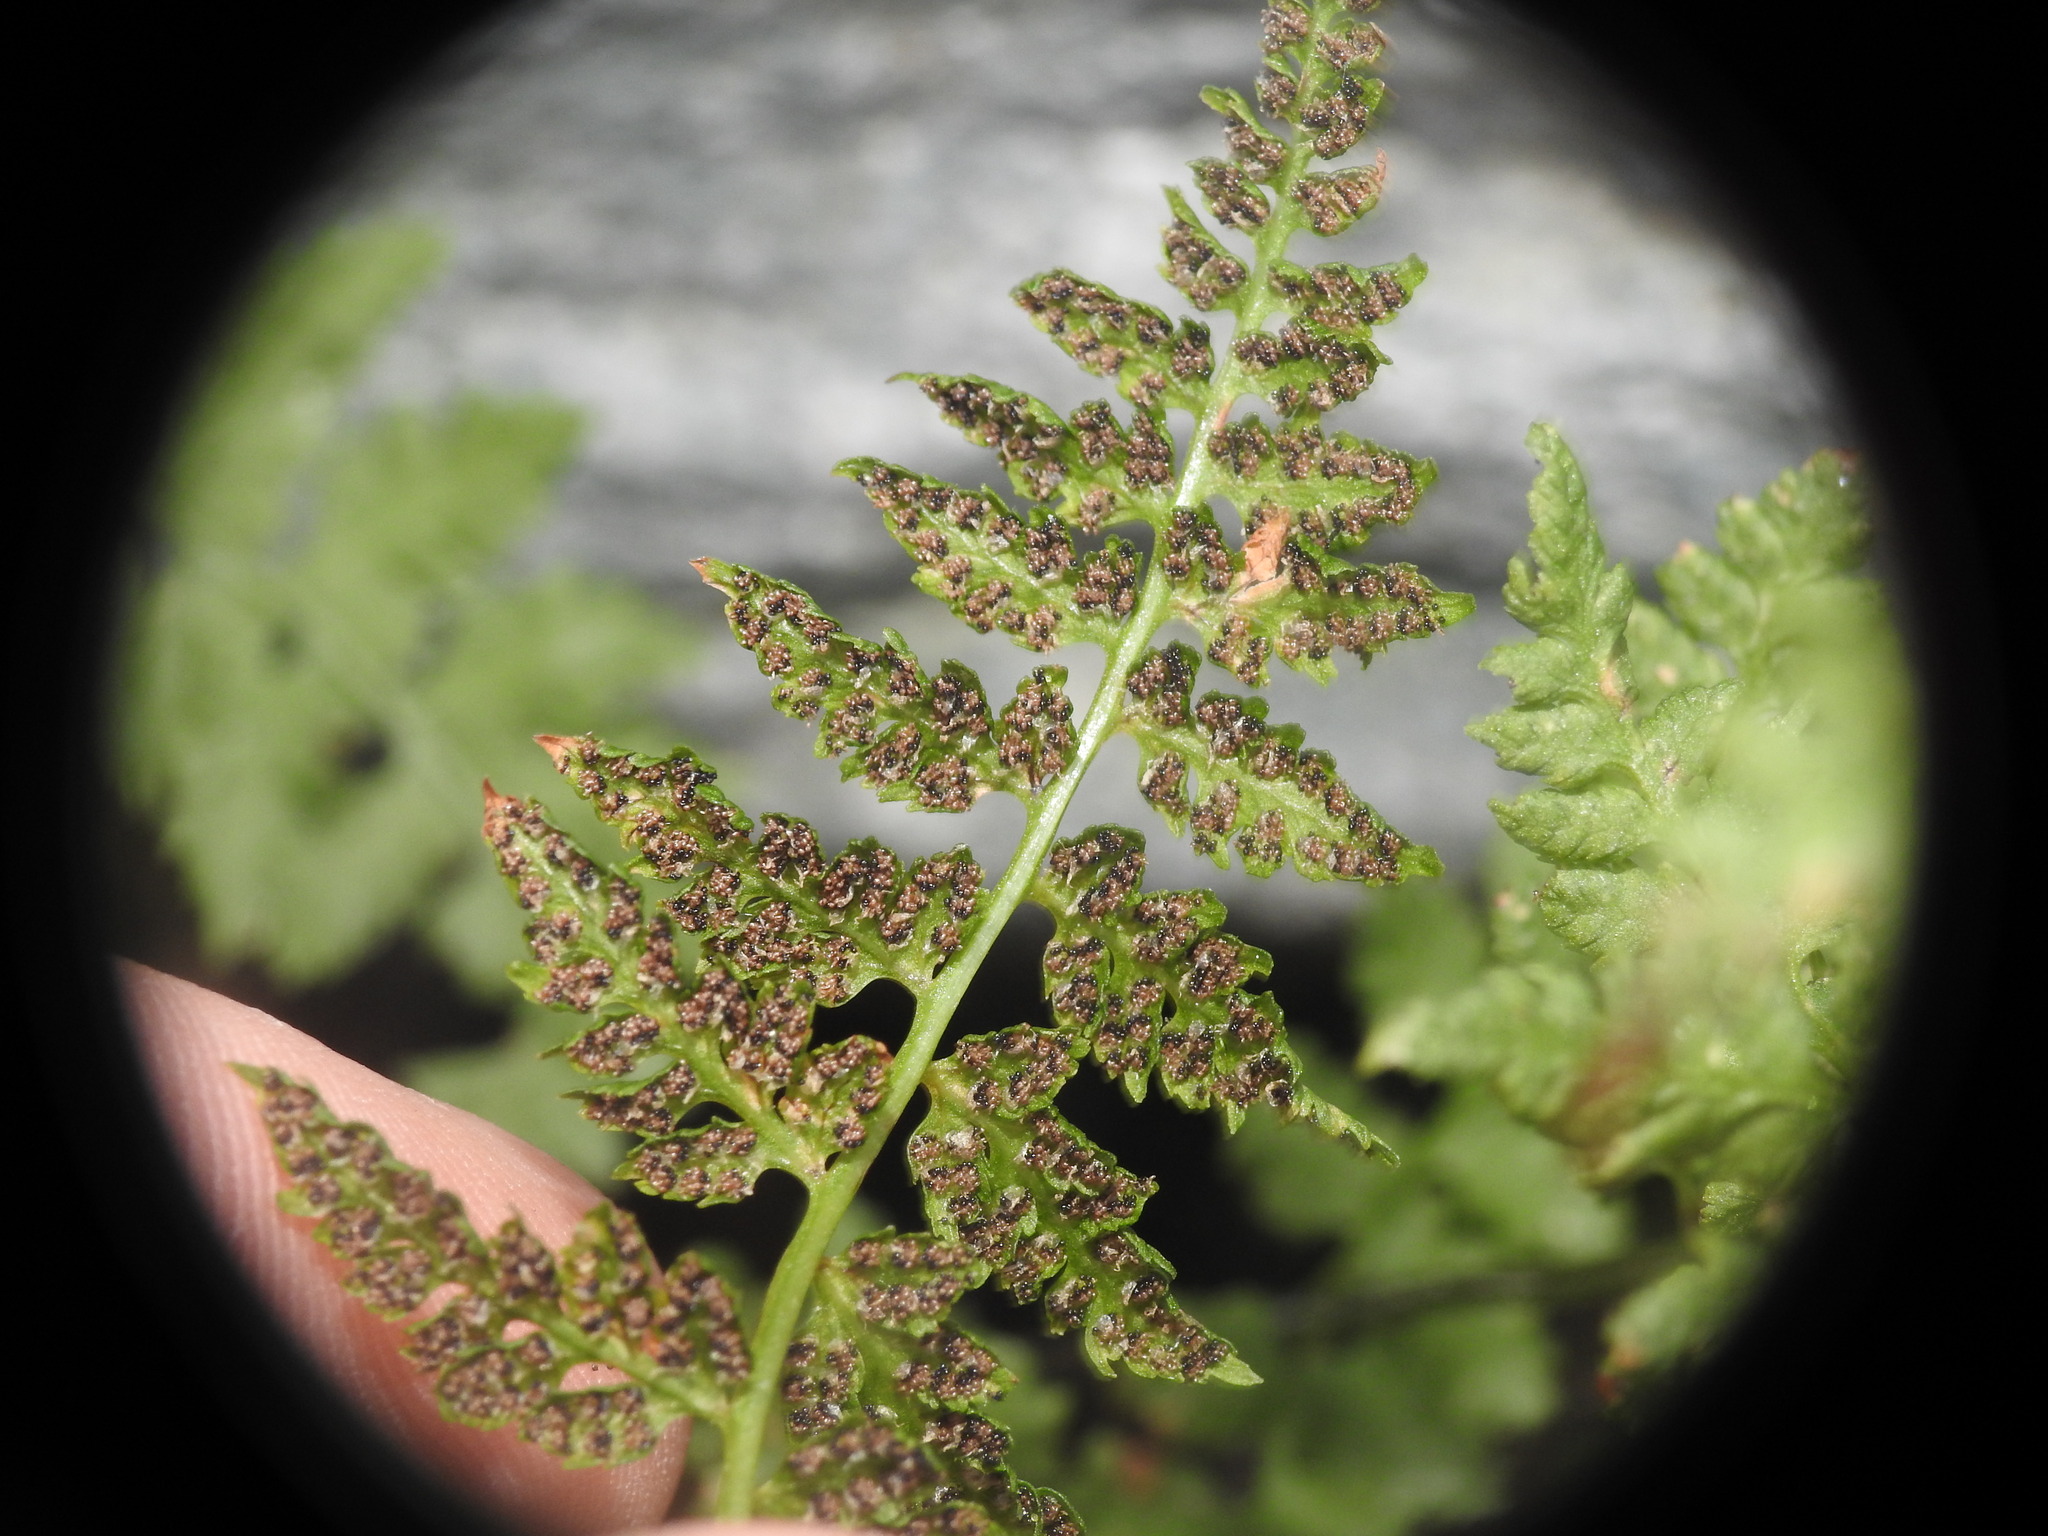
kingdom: Plantae
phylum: Tracheophyta
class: Polypodiopsida
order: Polypodiales
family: Cystopteridaceae
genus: Cystopteris
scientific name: Cystopteris fragilis
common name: Brittle bladder fern
